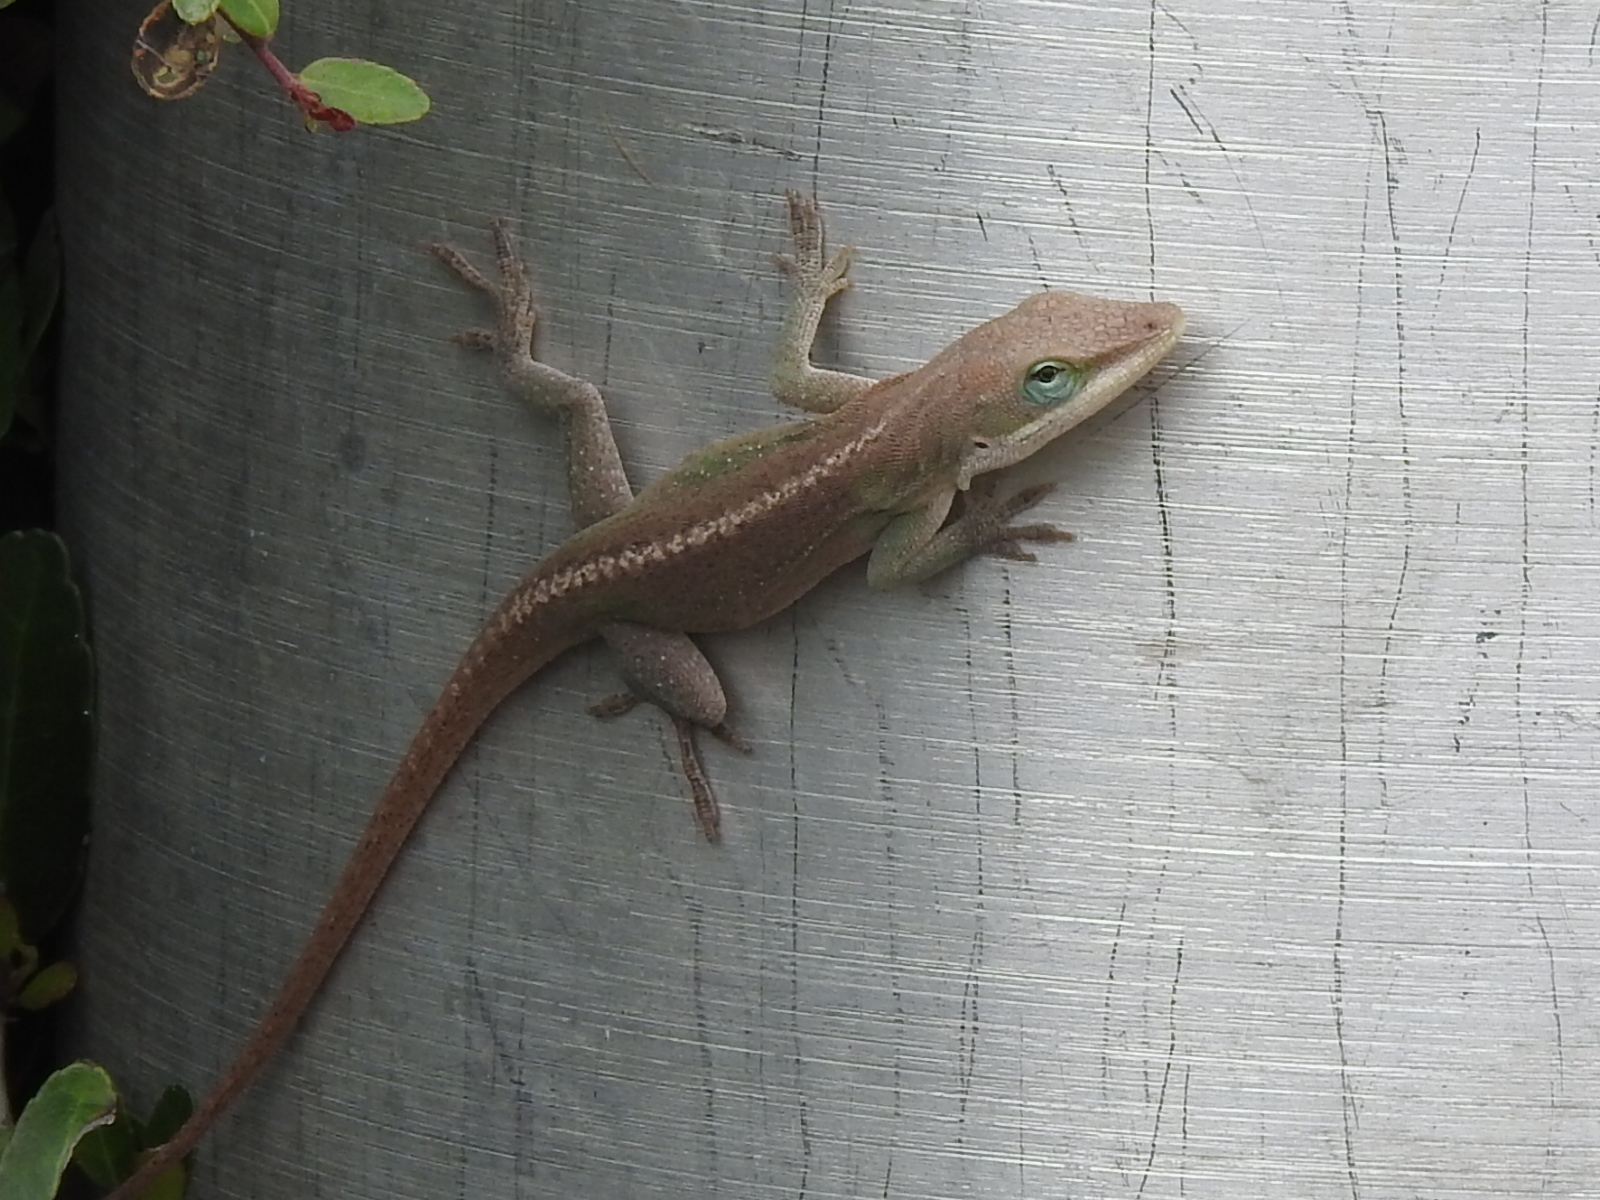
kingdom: Animalia
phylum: Chordata
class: Squamata
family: Dactyloidae
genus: Anolis
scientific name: Anolis carolinensis
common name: Green anole
